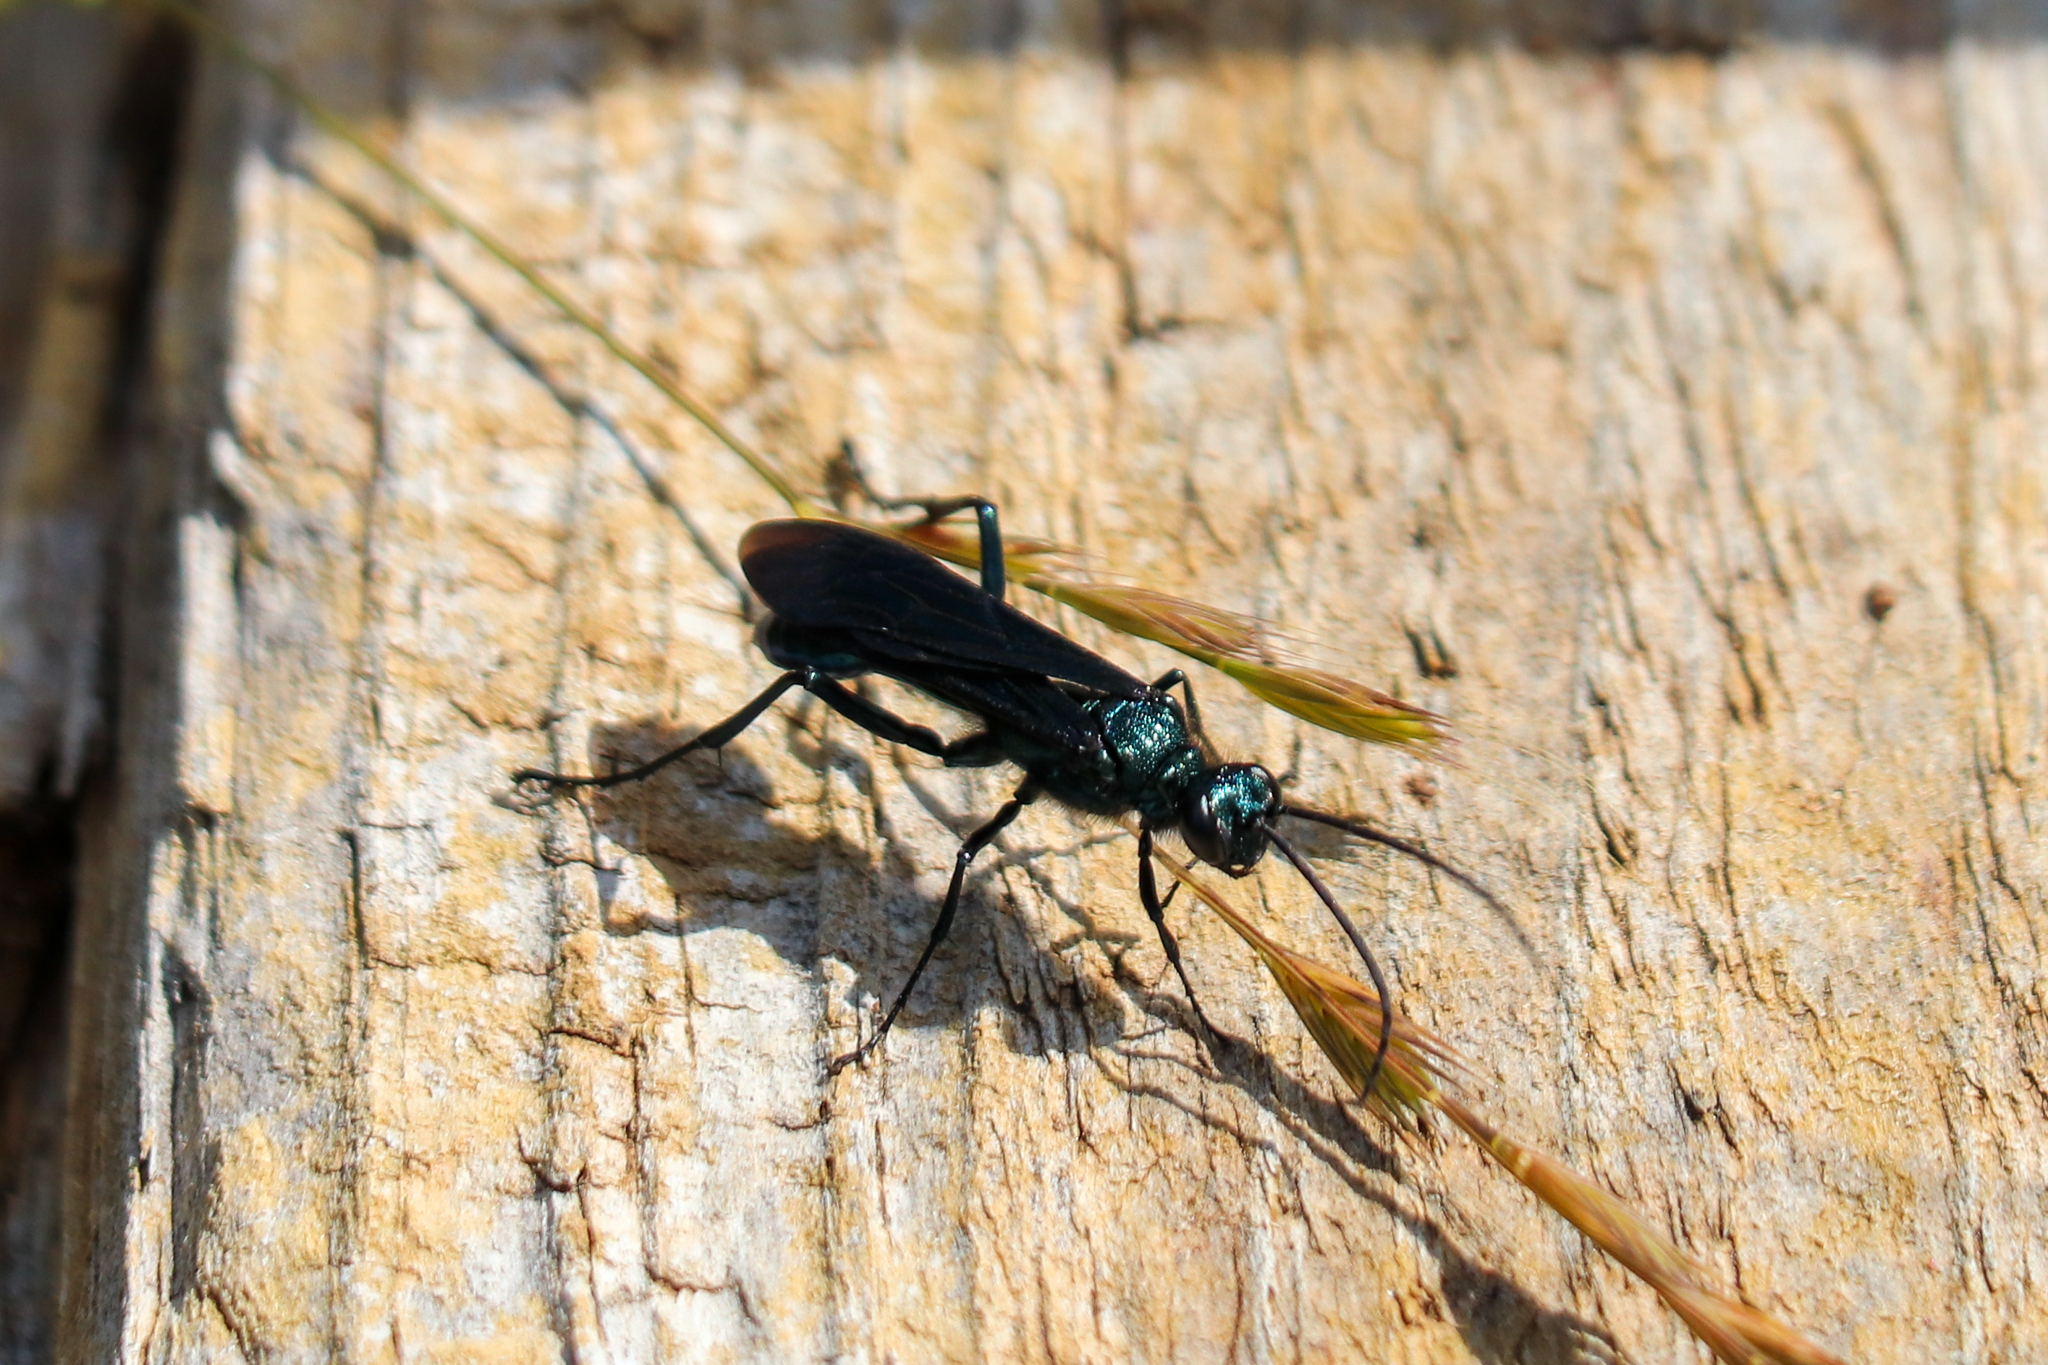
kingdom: Animalia
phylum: Arthropoda
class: Insecta
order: Hymenoptera
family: Sphecidae
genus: Chalybion
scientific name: Chalybion californicum
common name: Mud dauber
